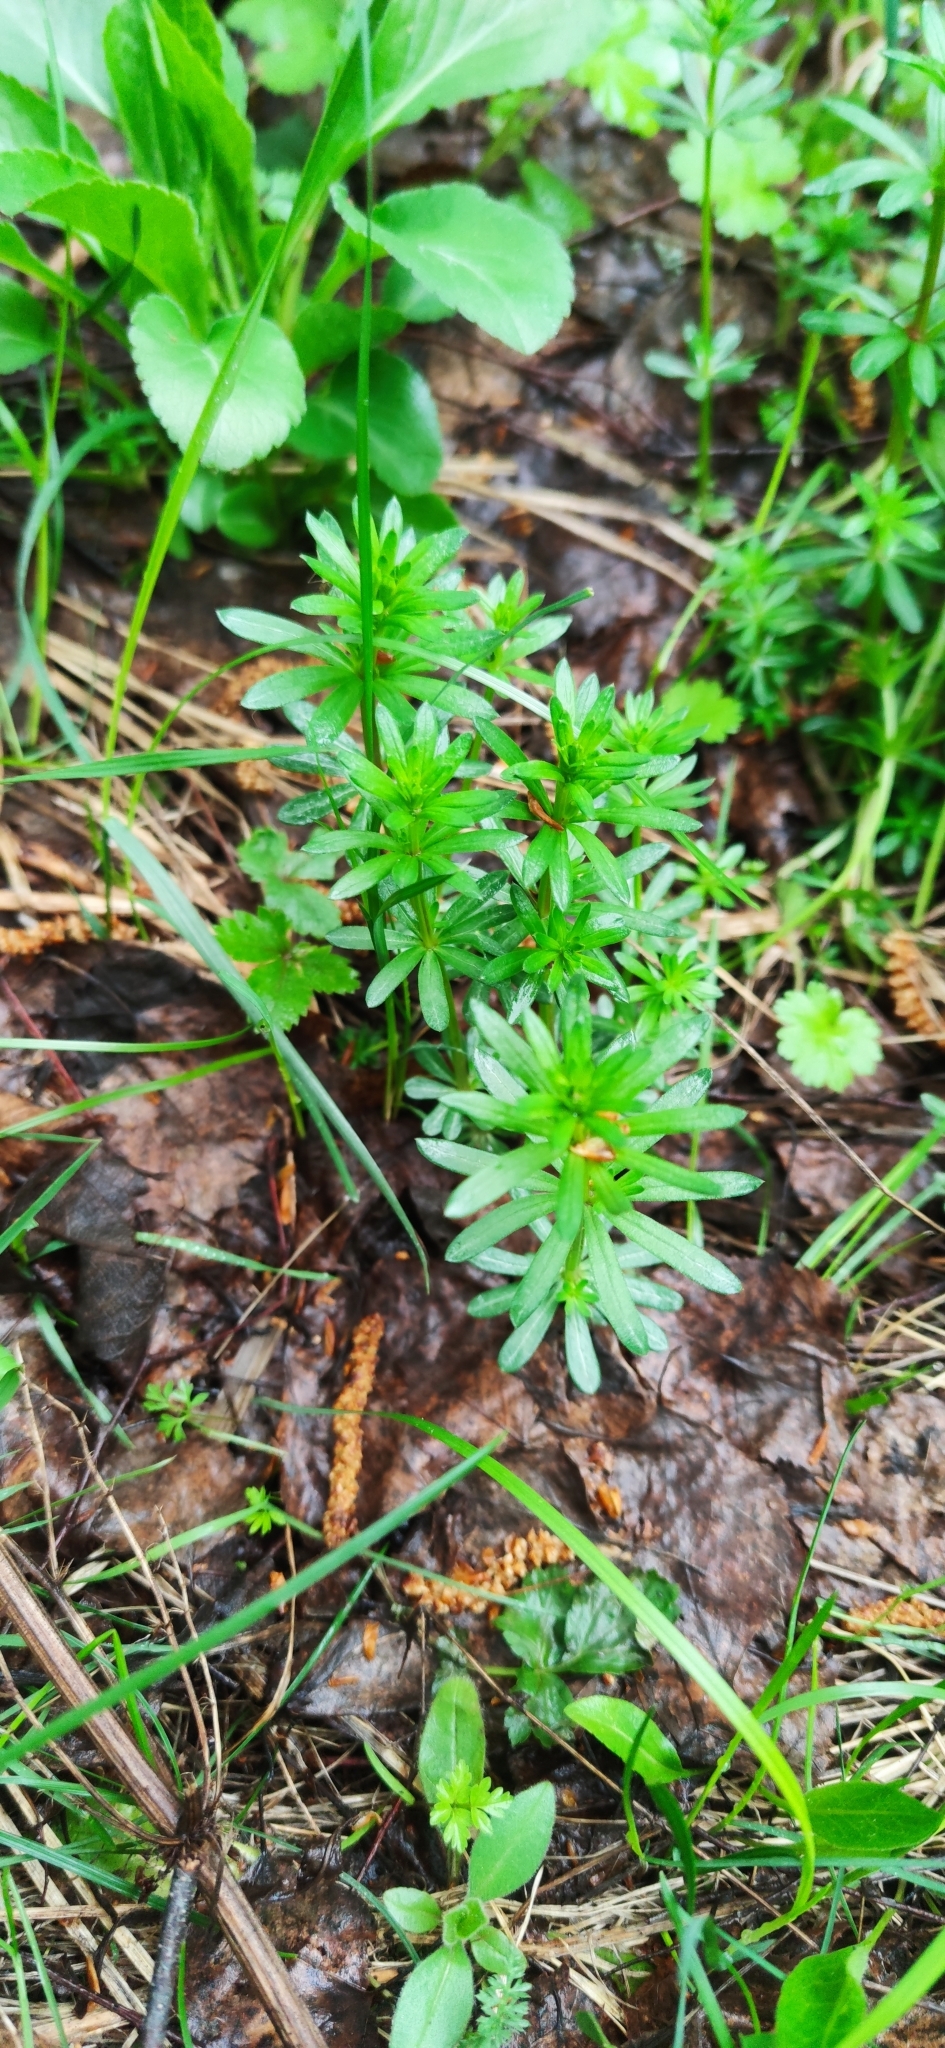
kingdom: Plantae
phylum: Tracheophyta
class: Magnoliopsida
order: Gentianales
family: Rubiaceae
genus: Galium
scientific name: Galium mollugo
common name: Hedge bedstraw
